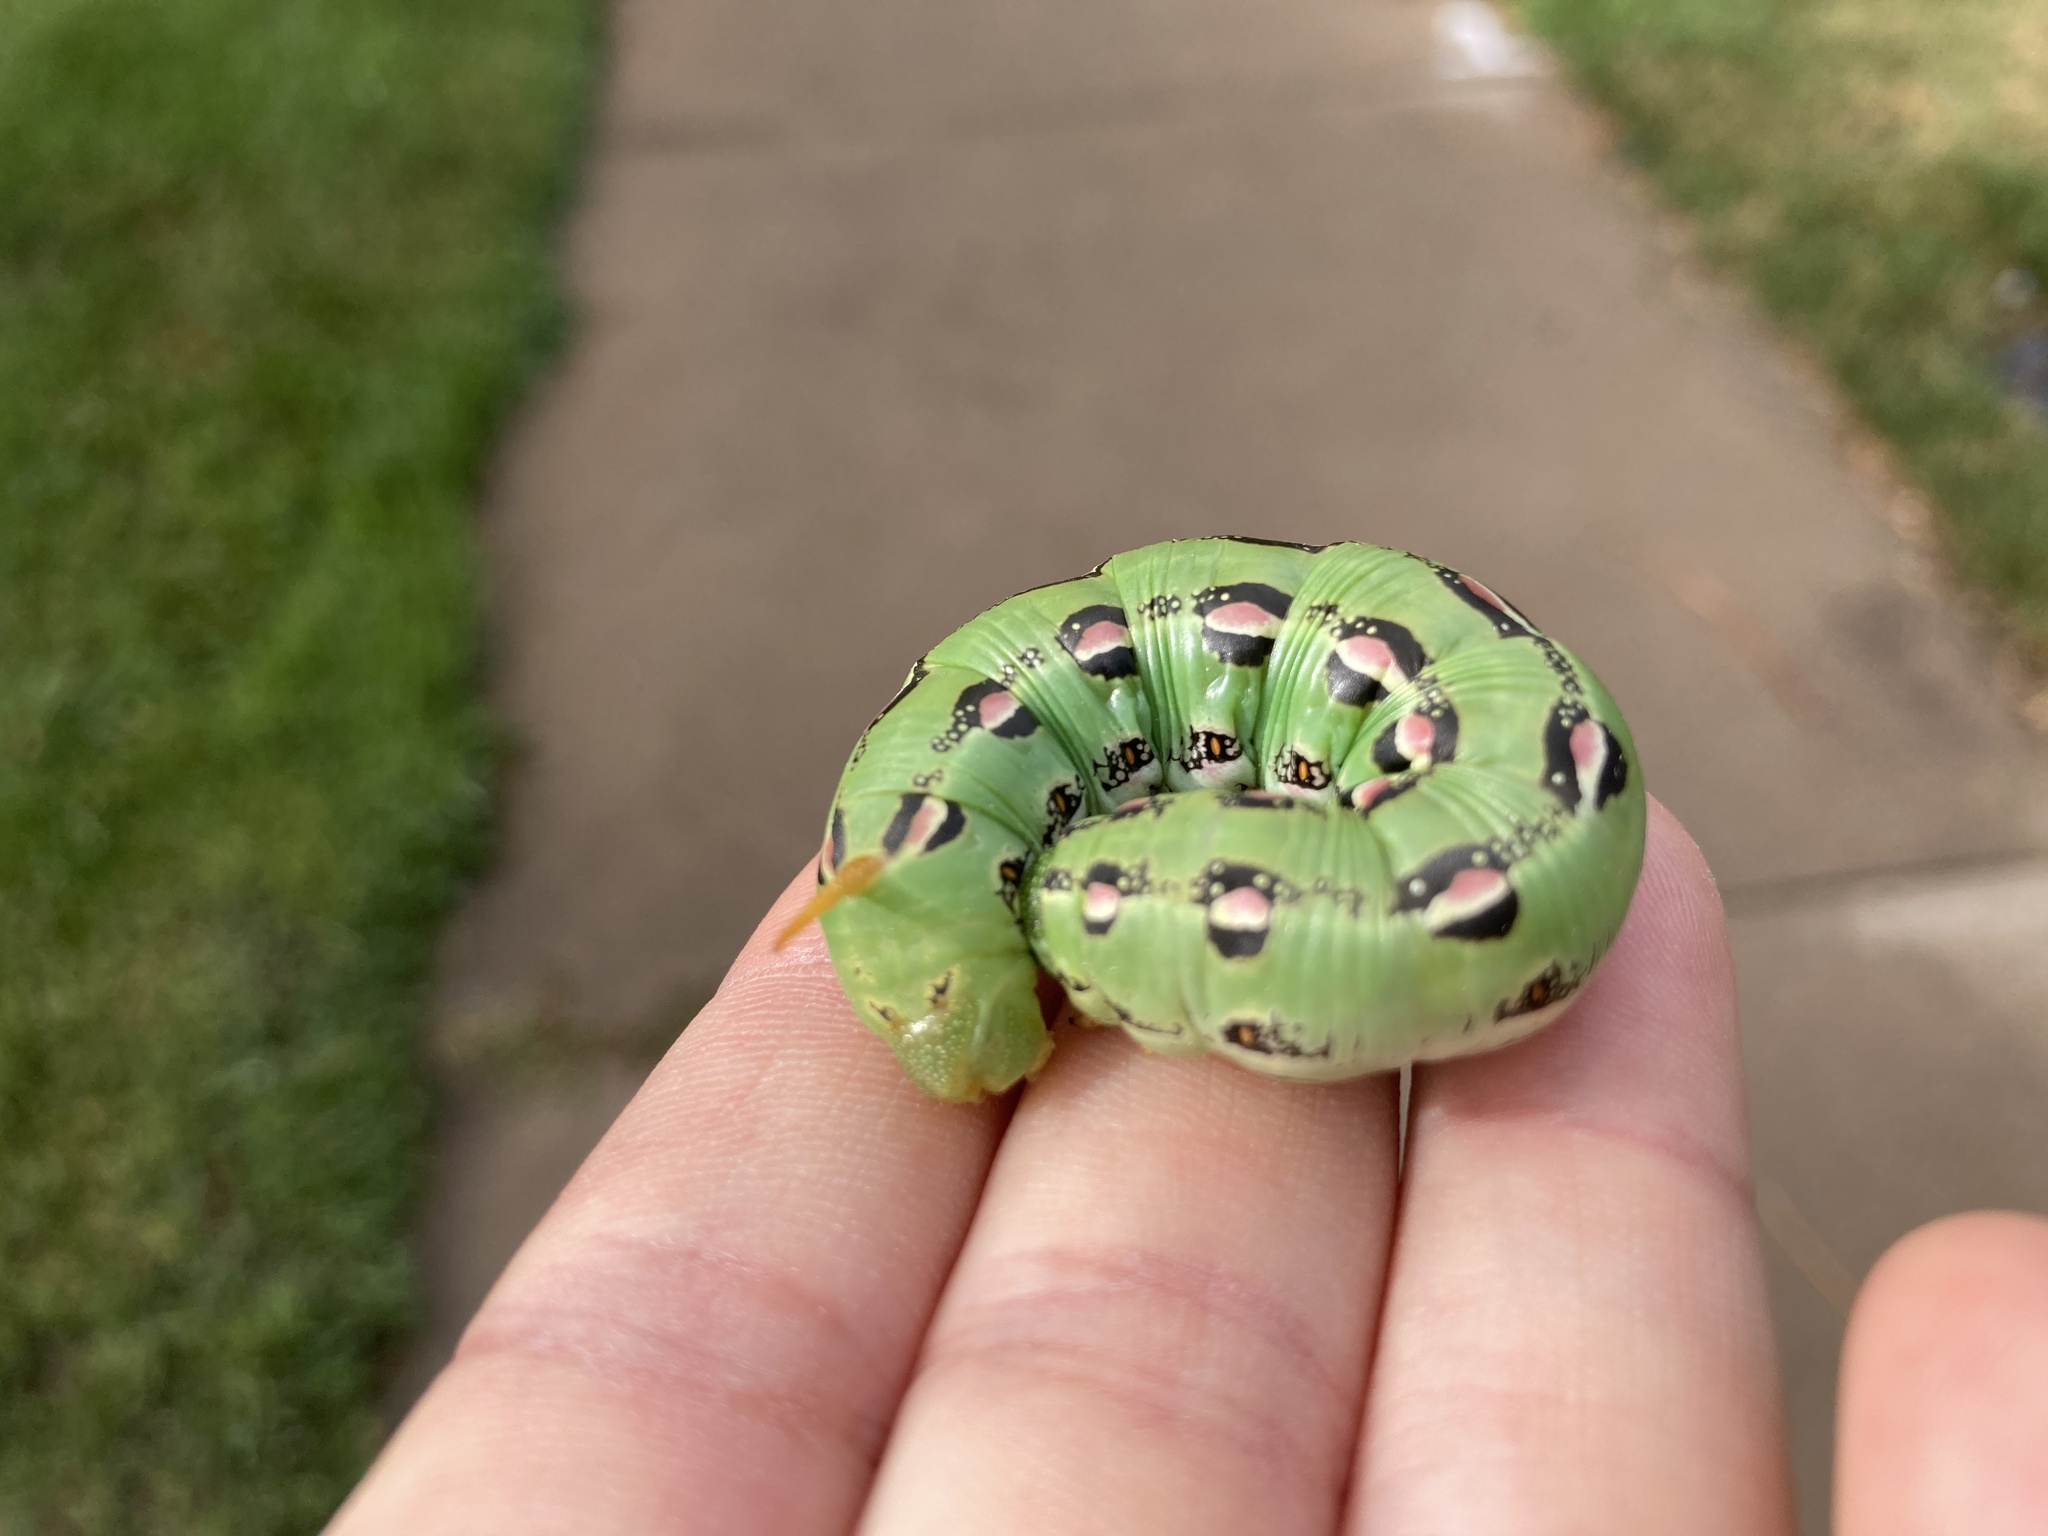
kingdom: Animalia
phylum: Arthropoda
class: Insecta
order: Lepidoptera
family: Sphingidae
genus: Hyles
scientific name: Hyles lineata
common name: White-lined sphinx
